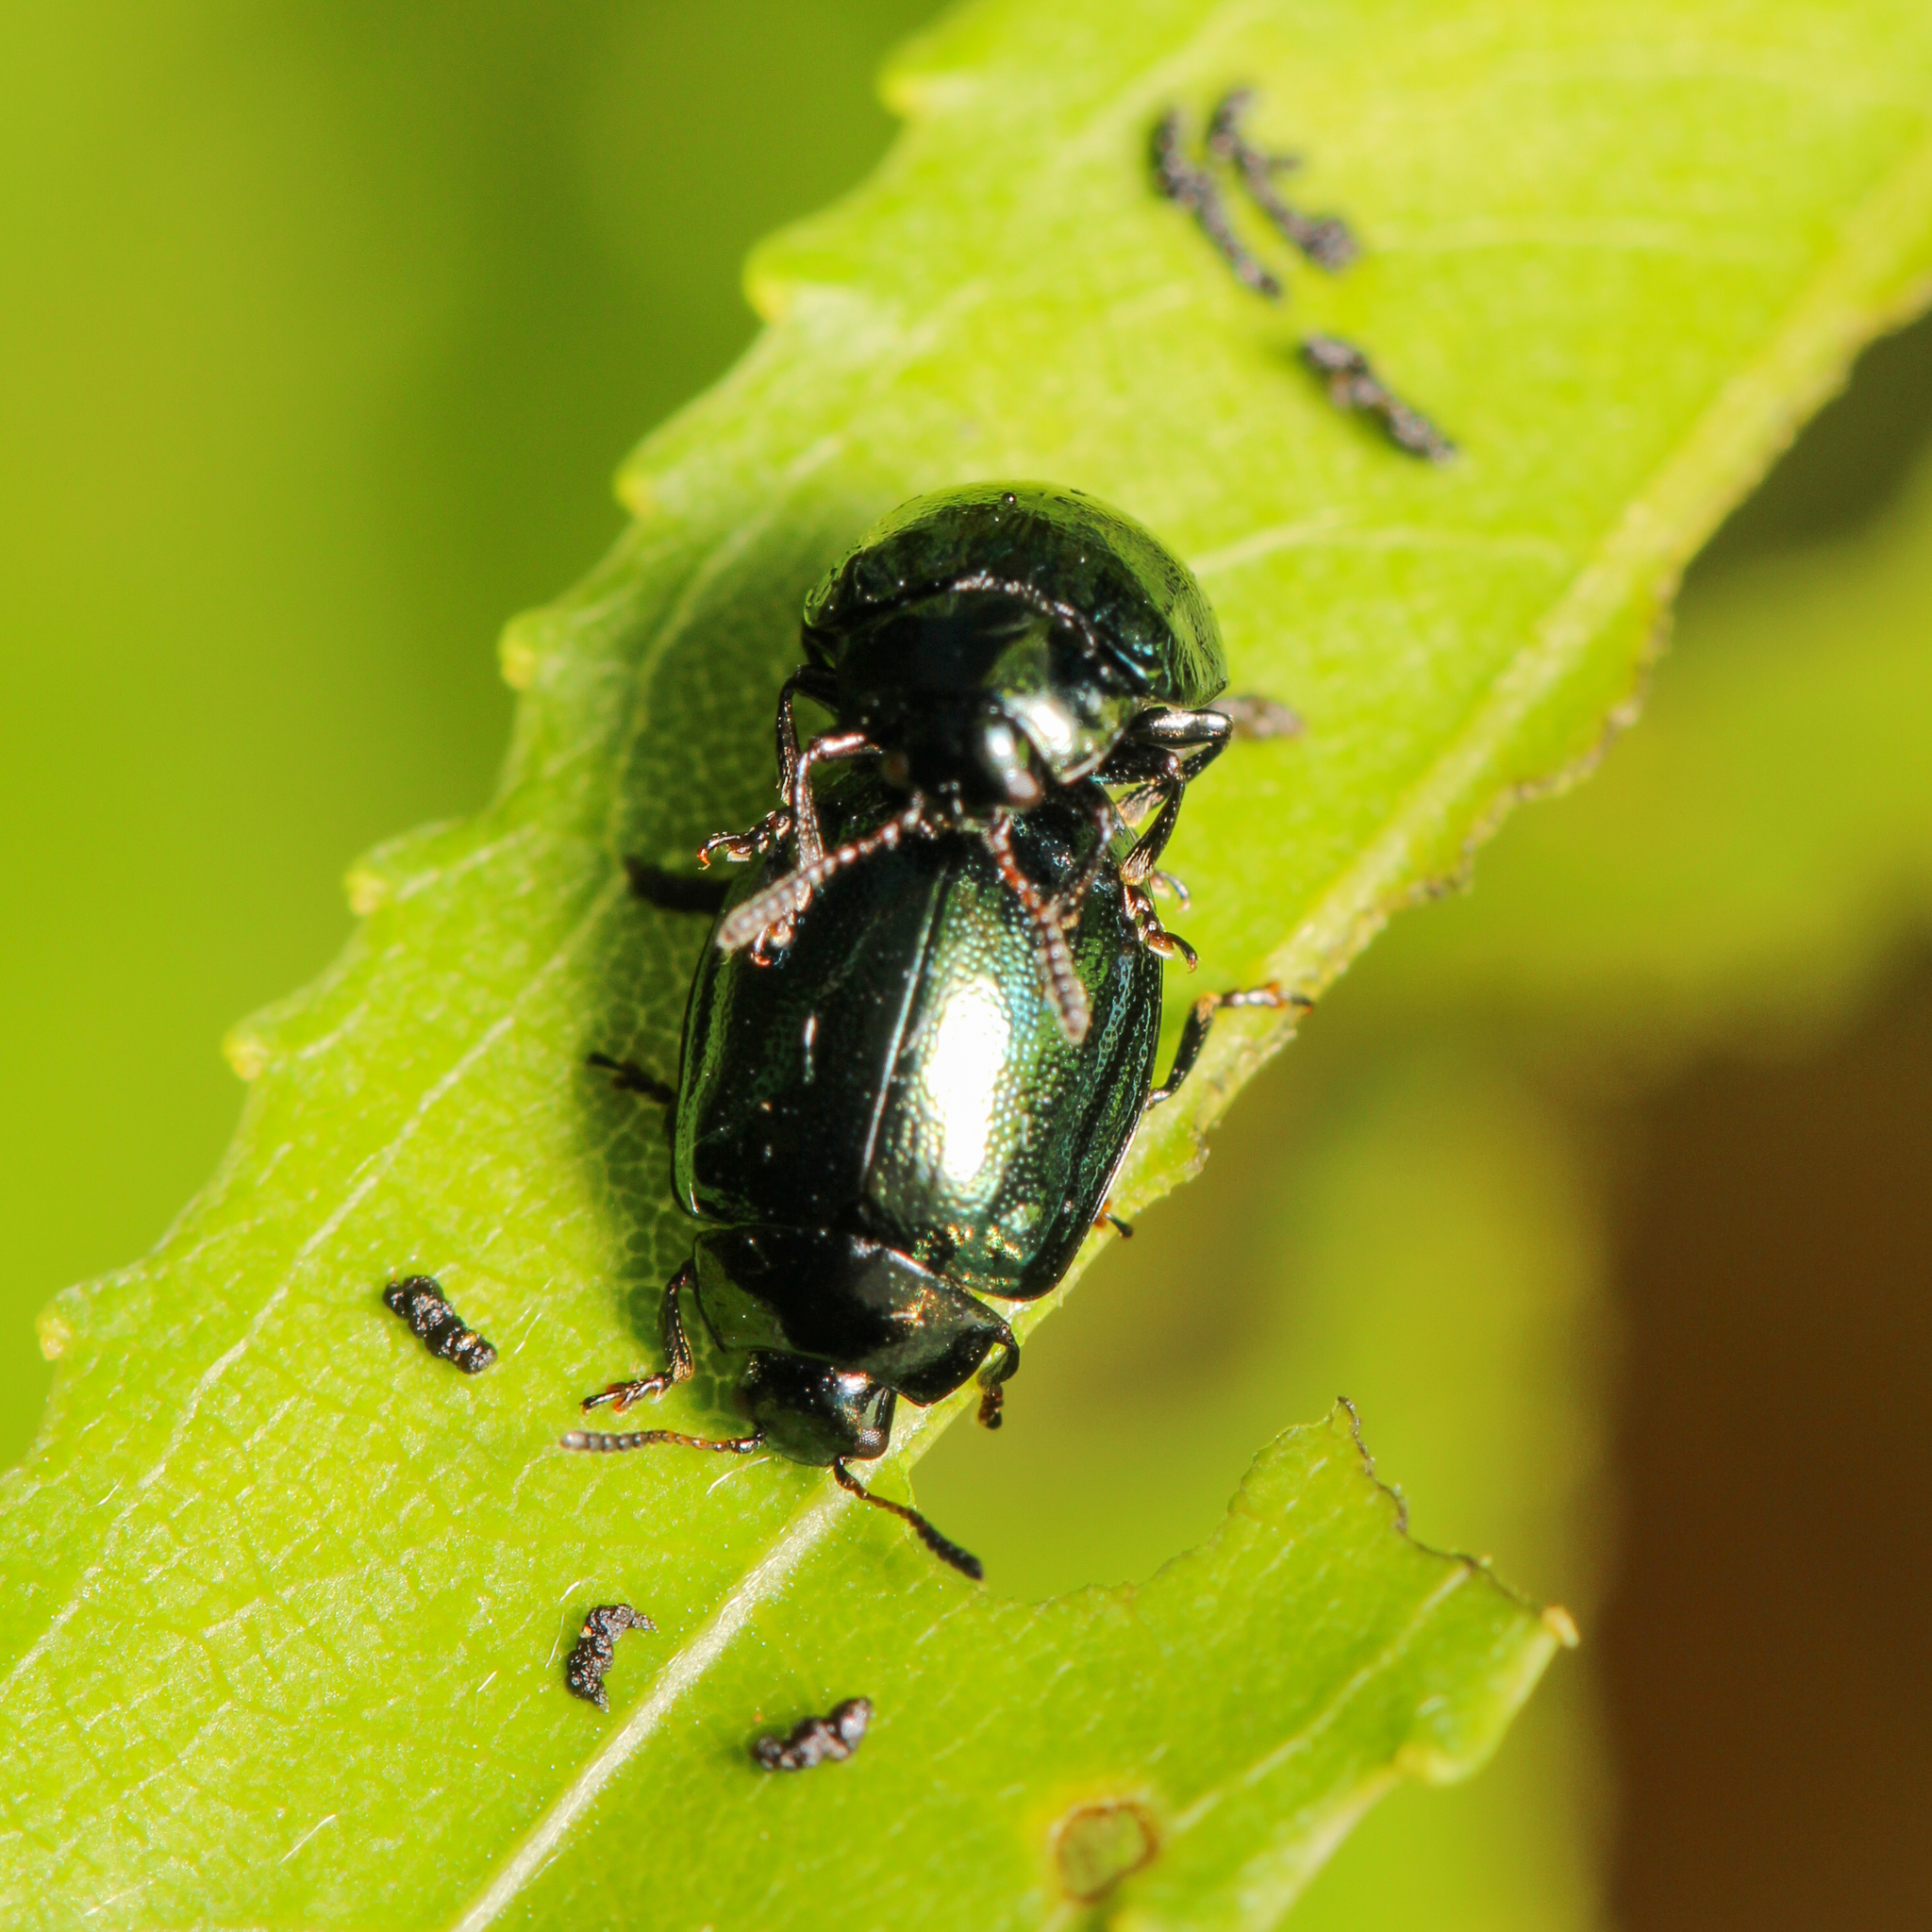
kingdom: Animalia
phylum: Arthropoda
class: Insecta
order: Coleoptera
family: Chrysomelidae
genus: Plagiodera
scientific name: Plagiodera versicolora
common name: Imported willow leaf beetle
